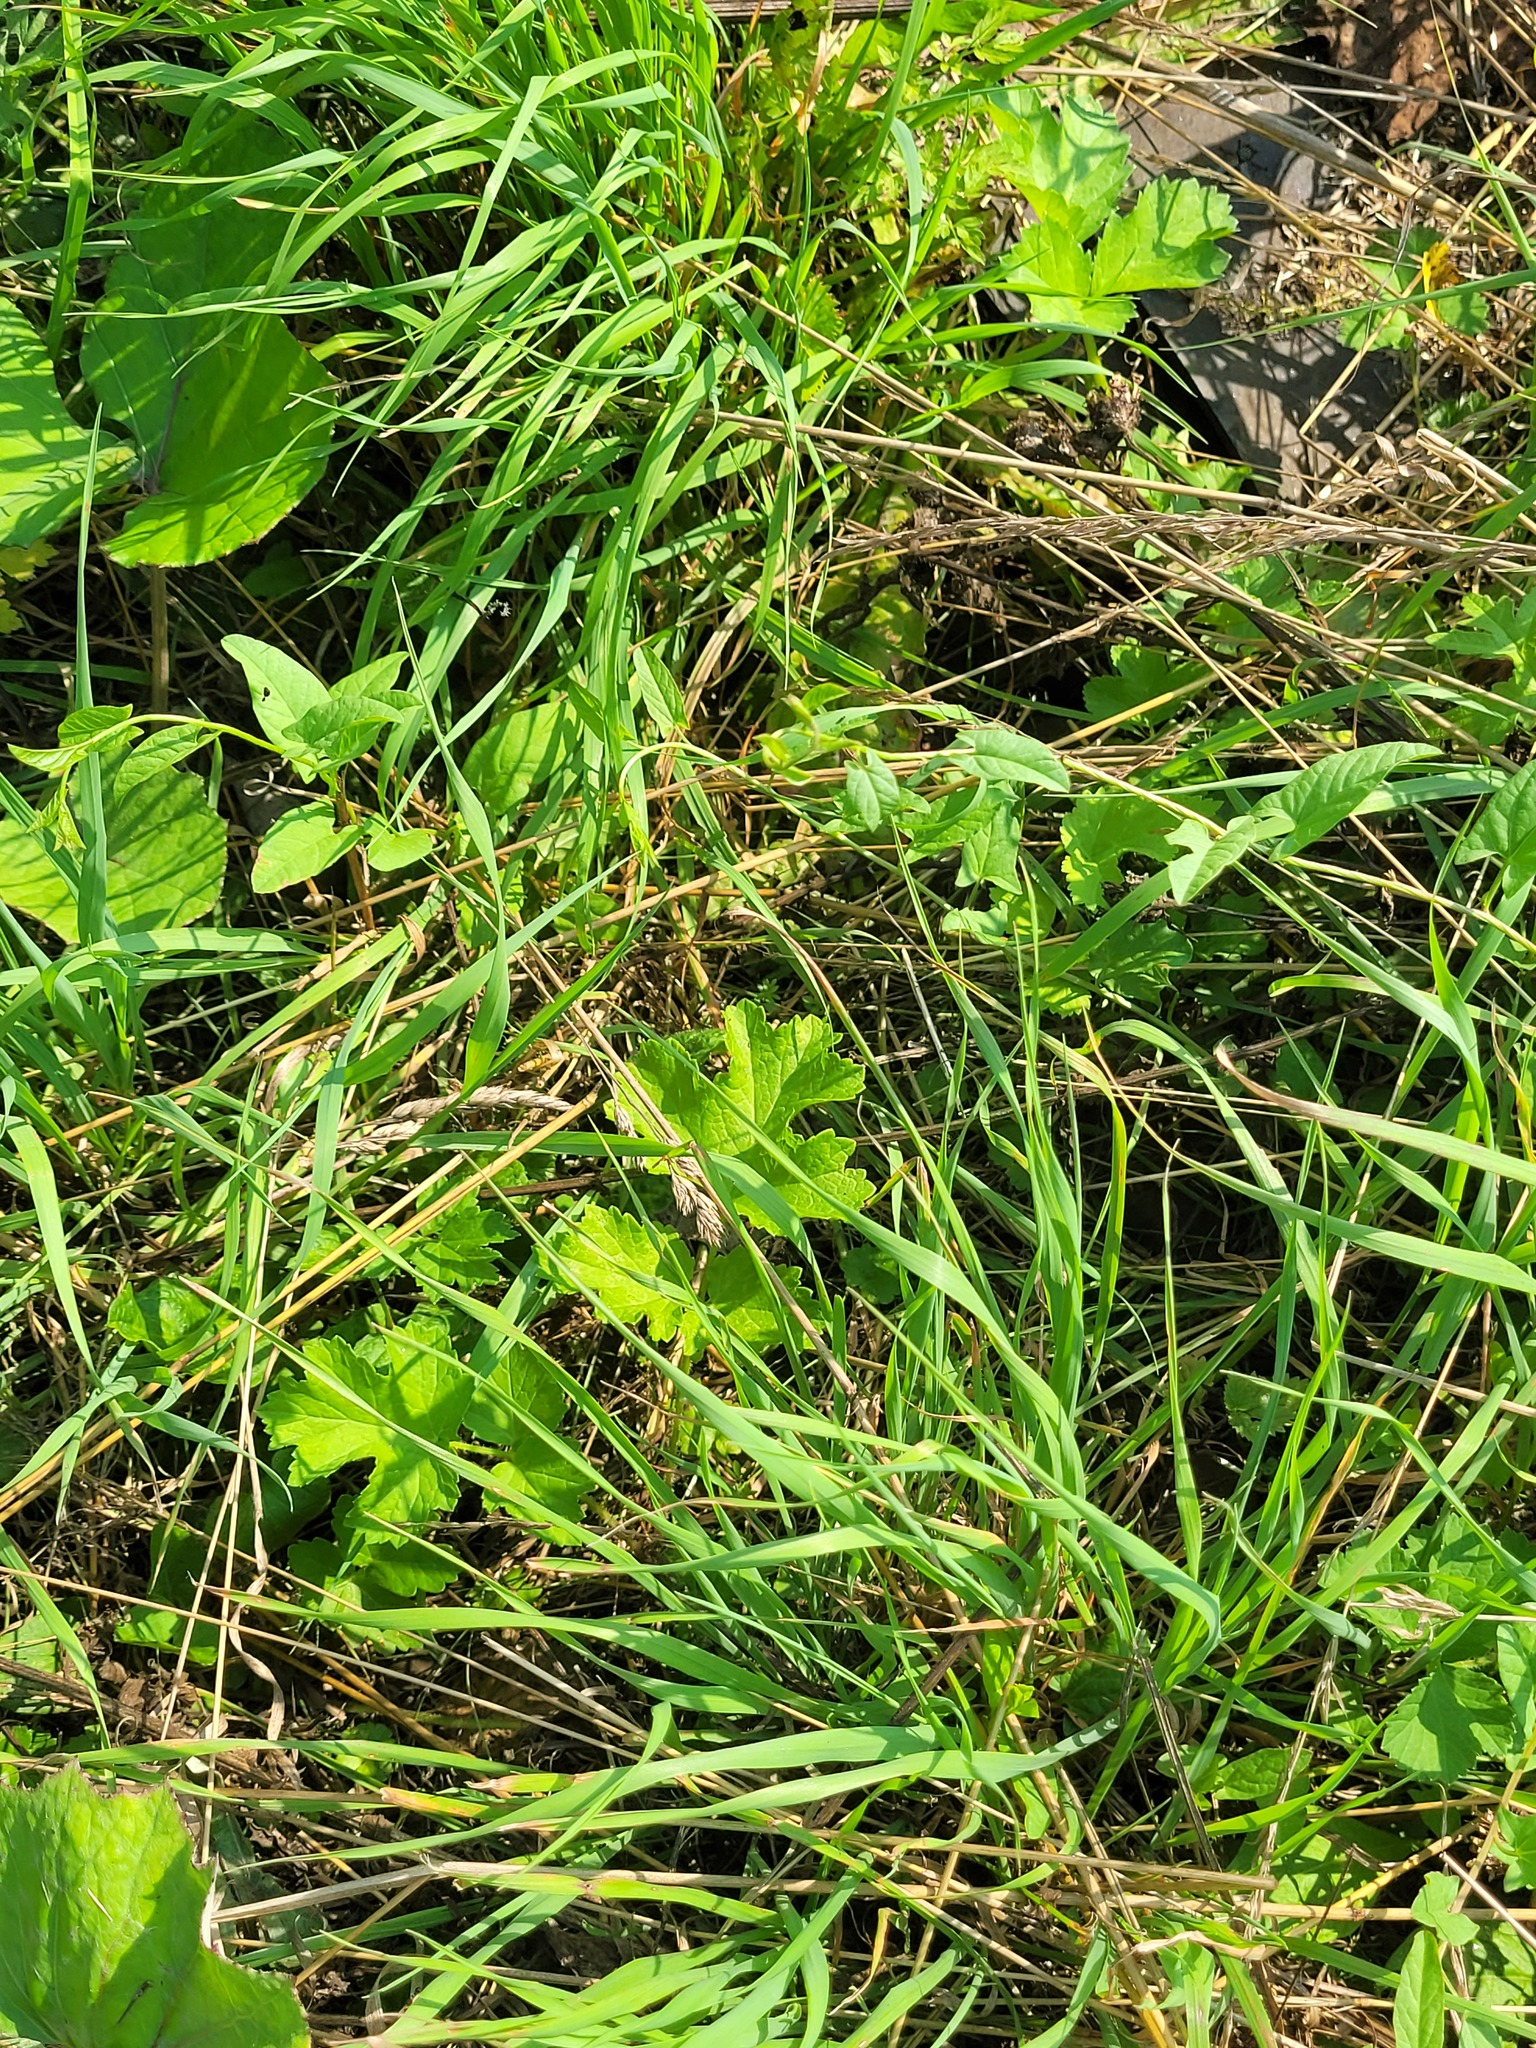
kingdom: Plantae
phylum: Tracheophyta
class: Magnoliopsida
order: Apiales
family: Apiaceae
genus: Heracleum
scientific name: Heracleum sphondylium
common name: Hogweed
